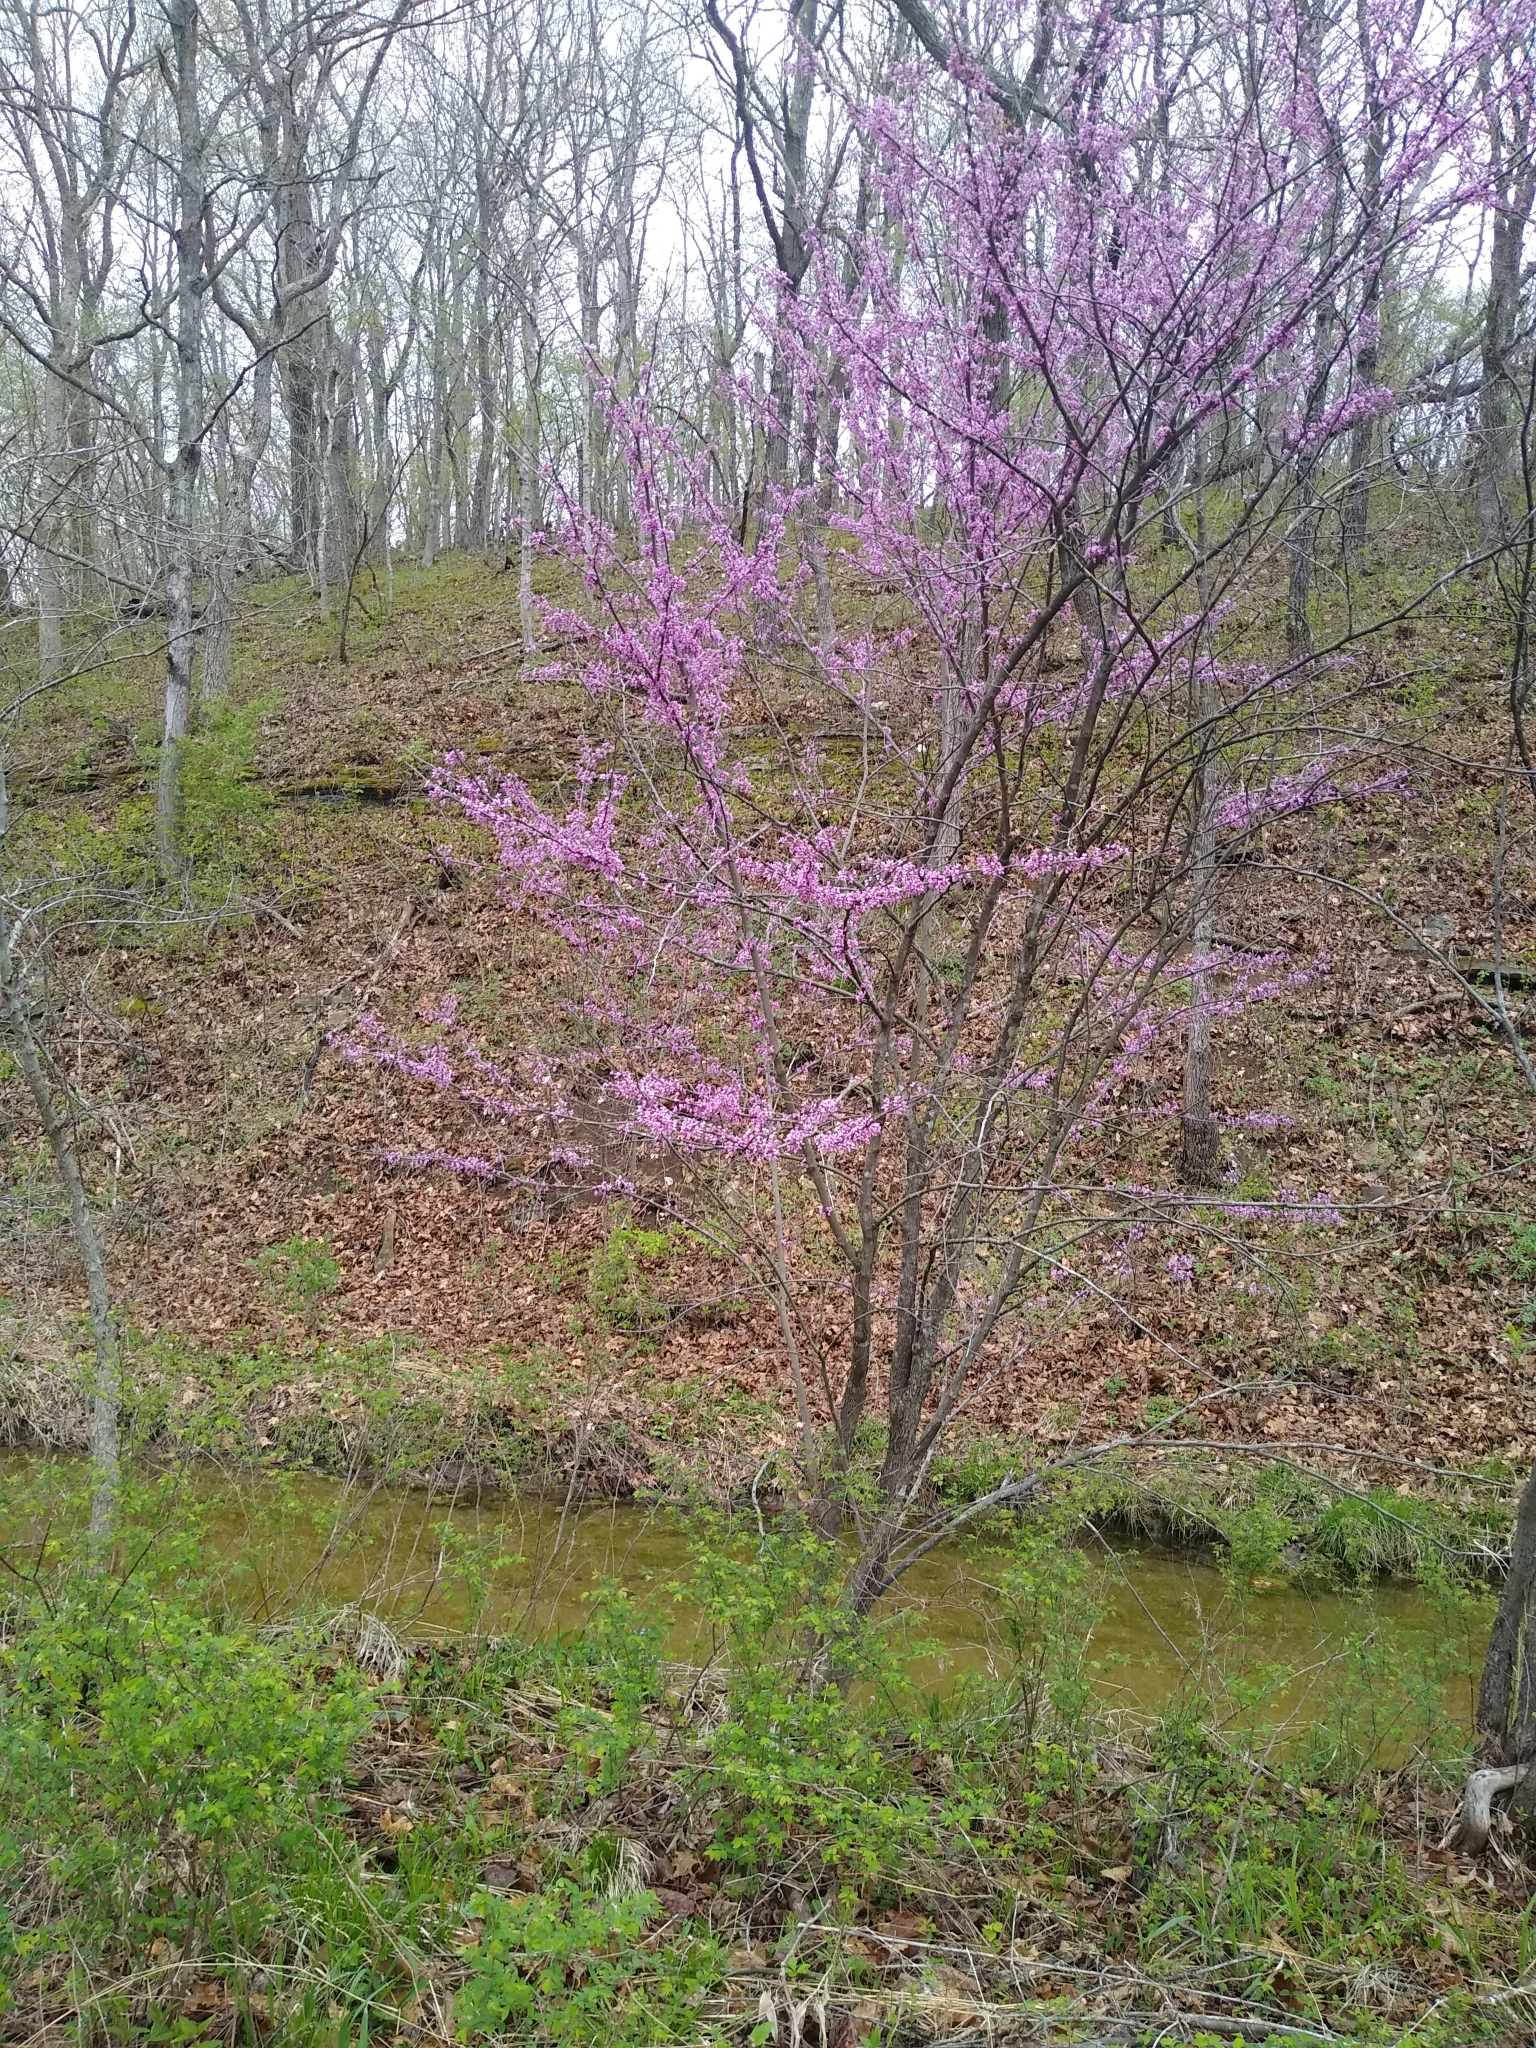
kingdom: Plantae
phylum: Tracheophyta
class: Magnoliopsida
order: Fabales
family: Fabaceae
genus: Cercis
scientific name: Cercis canadensis
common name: Eastern redbud
